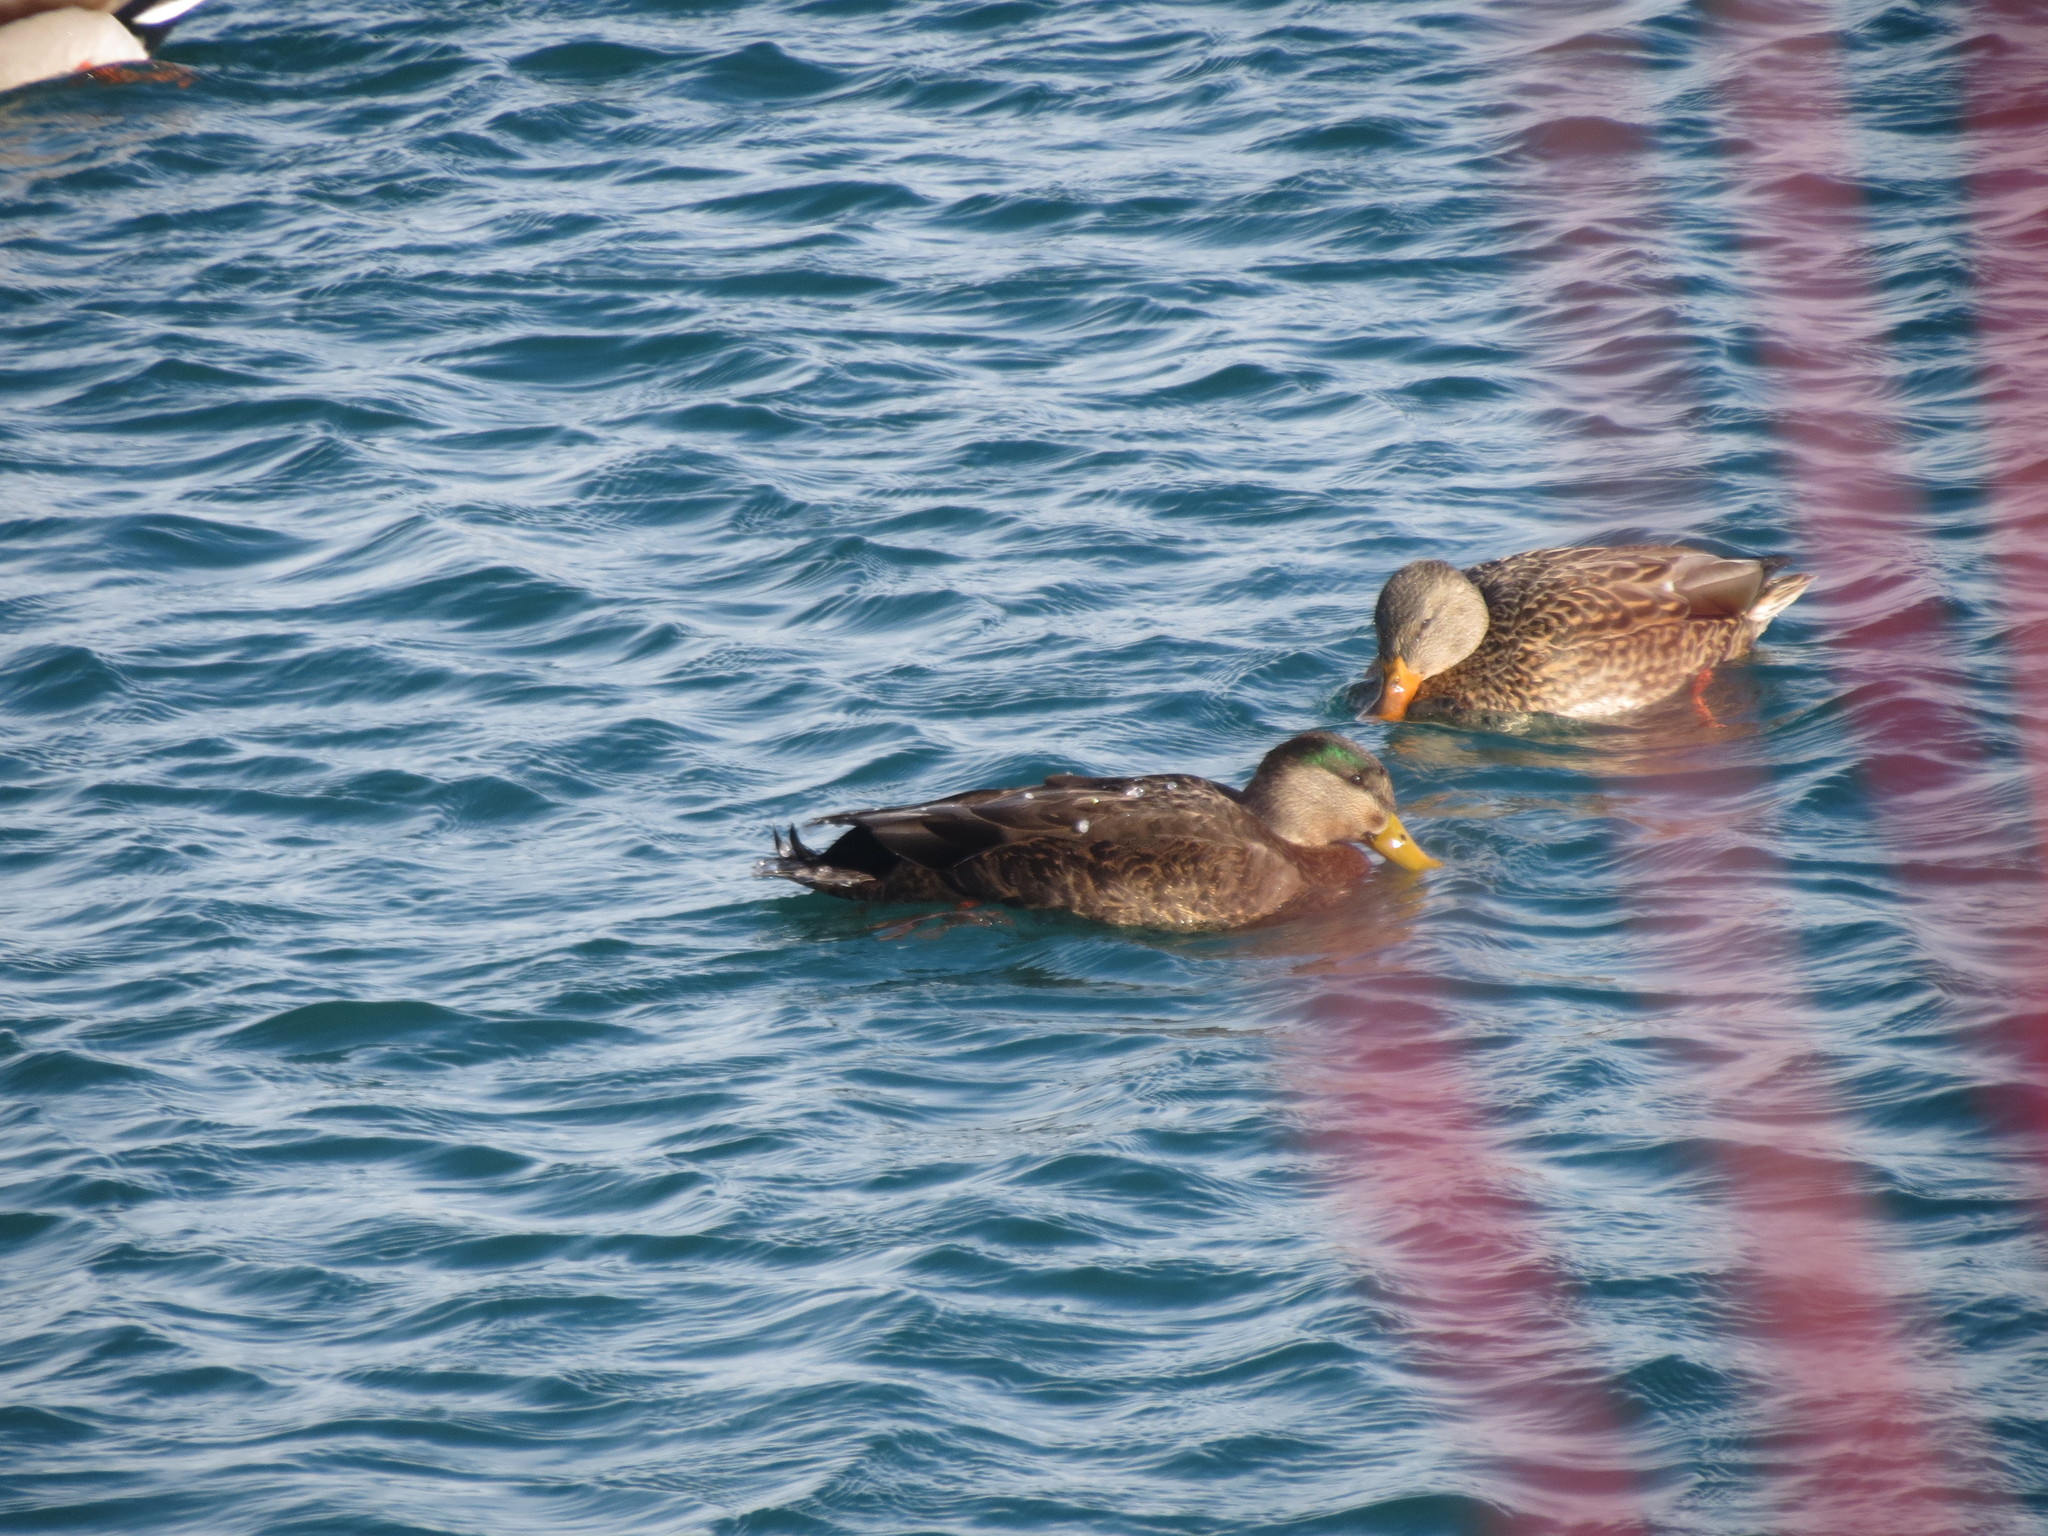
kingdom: Animalia
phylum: Chordata
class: Aves
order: Anseriformes
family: Anatidae
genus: Anas
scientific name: Anas
